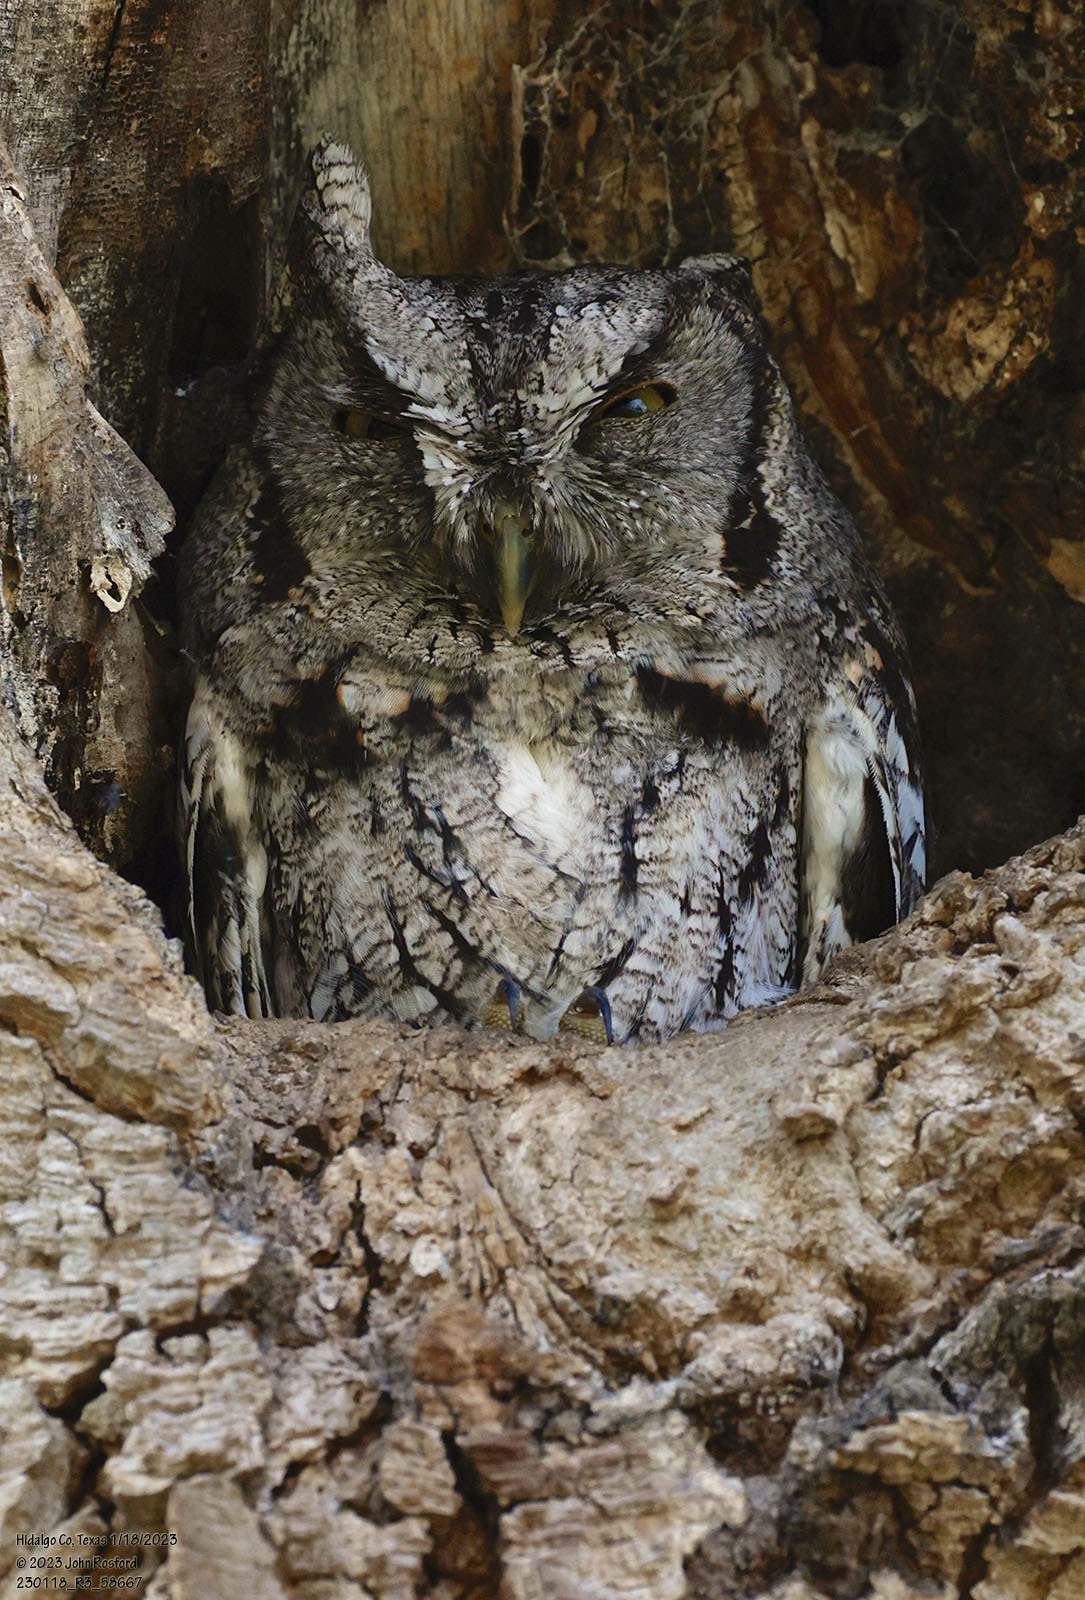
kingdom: Animalia
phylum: Chordata
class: Aves
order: Strigiformes
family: Strigidae
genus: Megascops
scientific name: Megascops asio
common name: Eastern screech-owl
